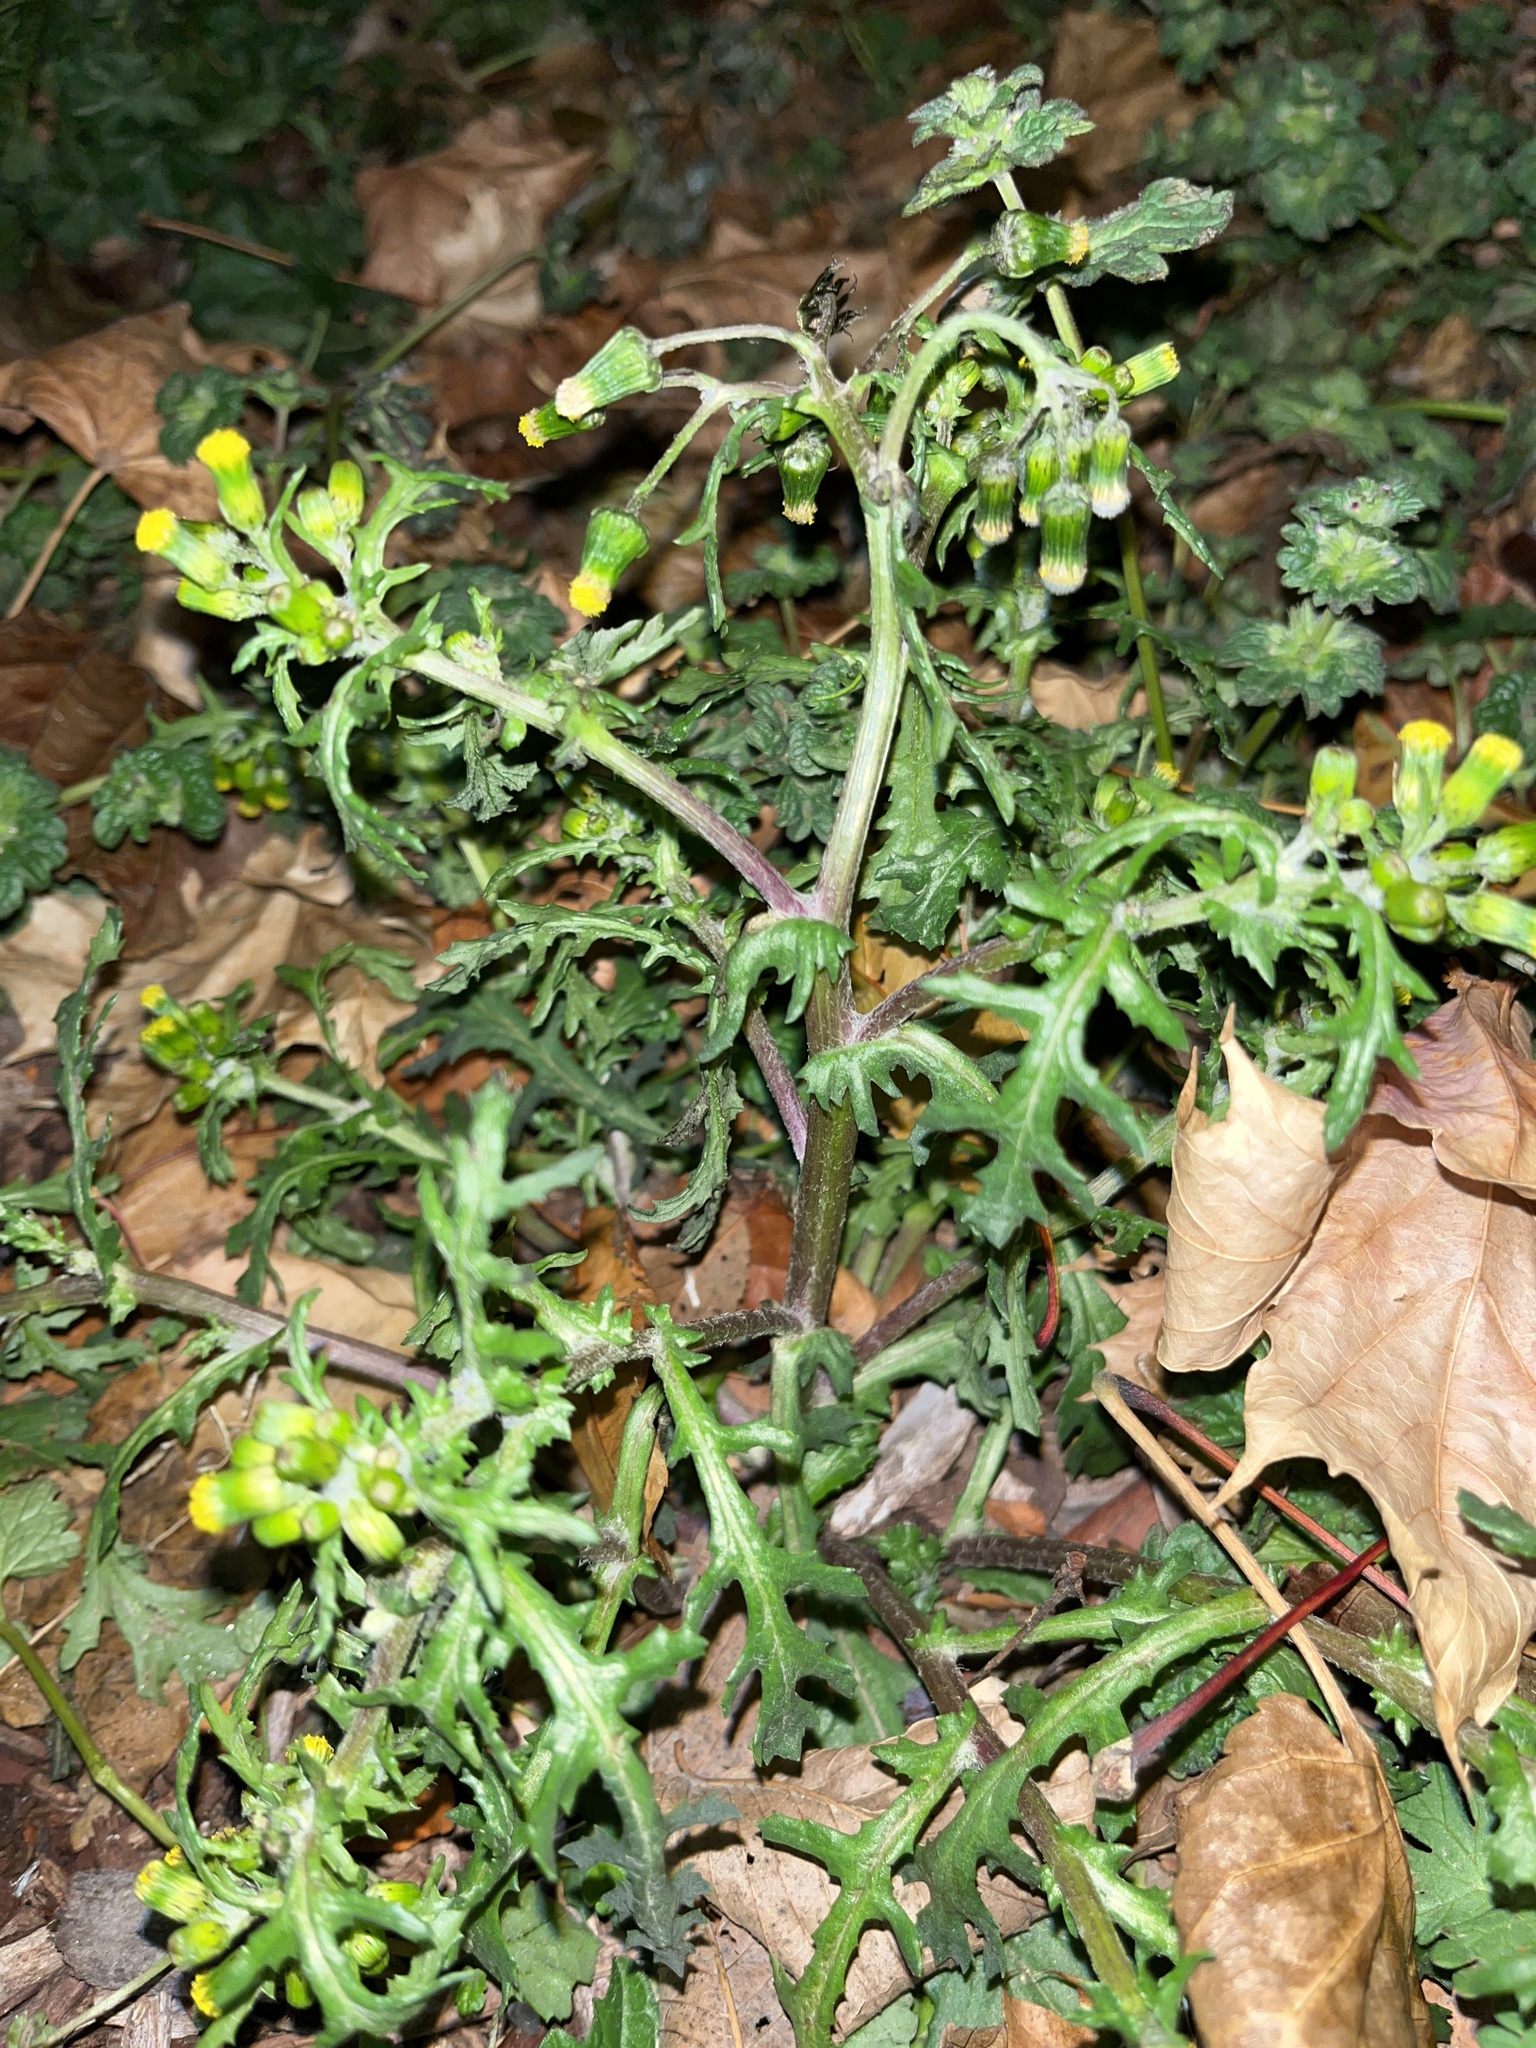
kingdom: Plantae
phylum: Tracheophyta
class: Magnoliopsida
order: Asterales
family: Asteraceae
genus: Senecio
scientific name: Senecio vulgaris
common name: Old-man-in-the-spring
